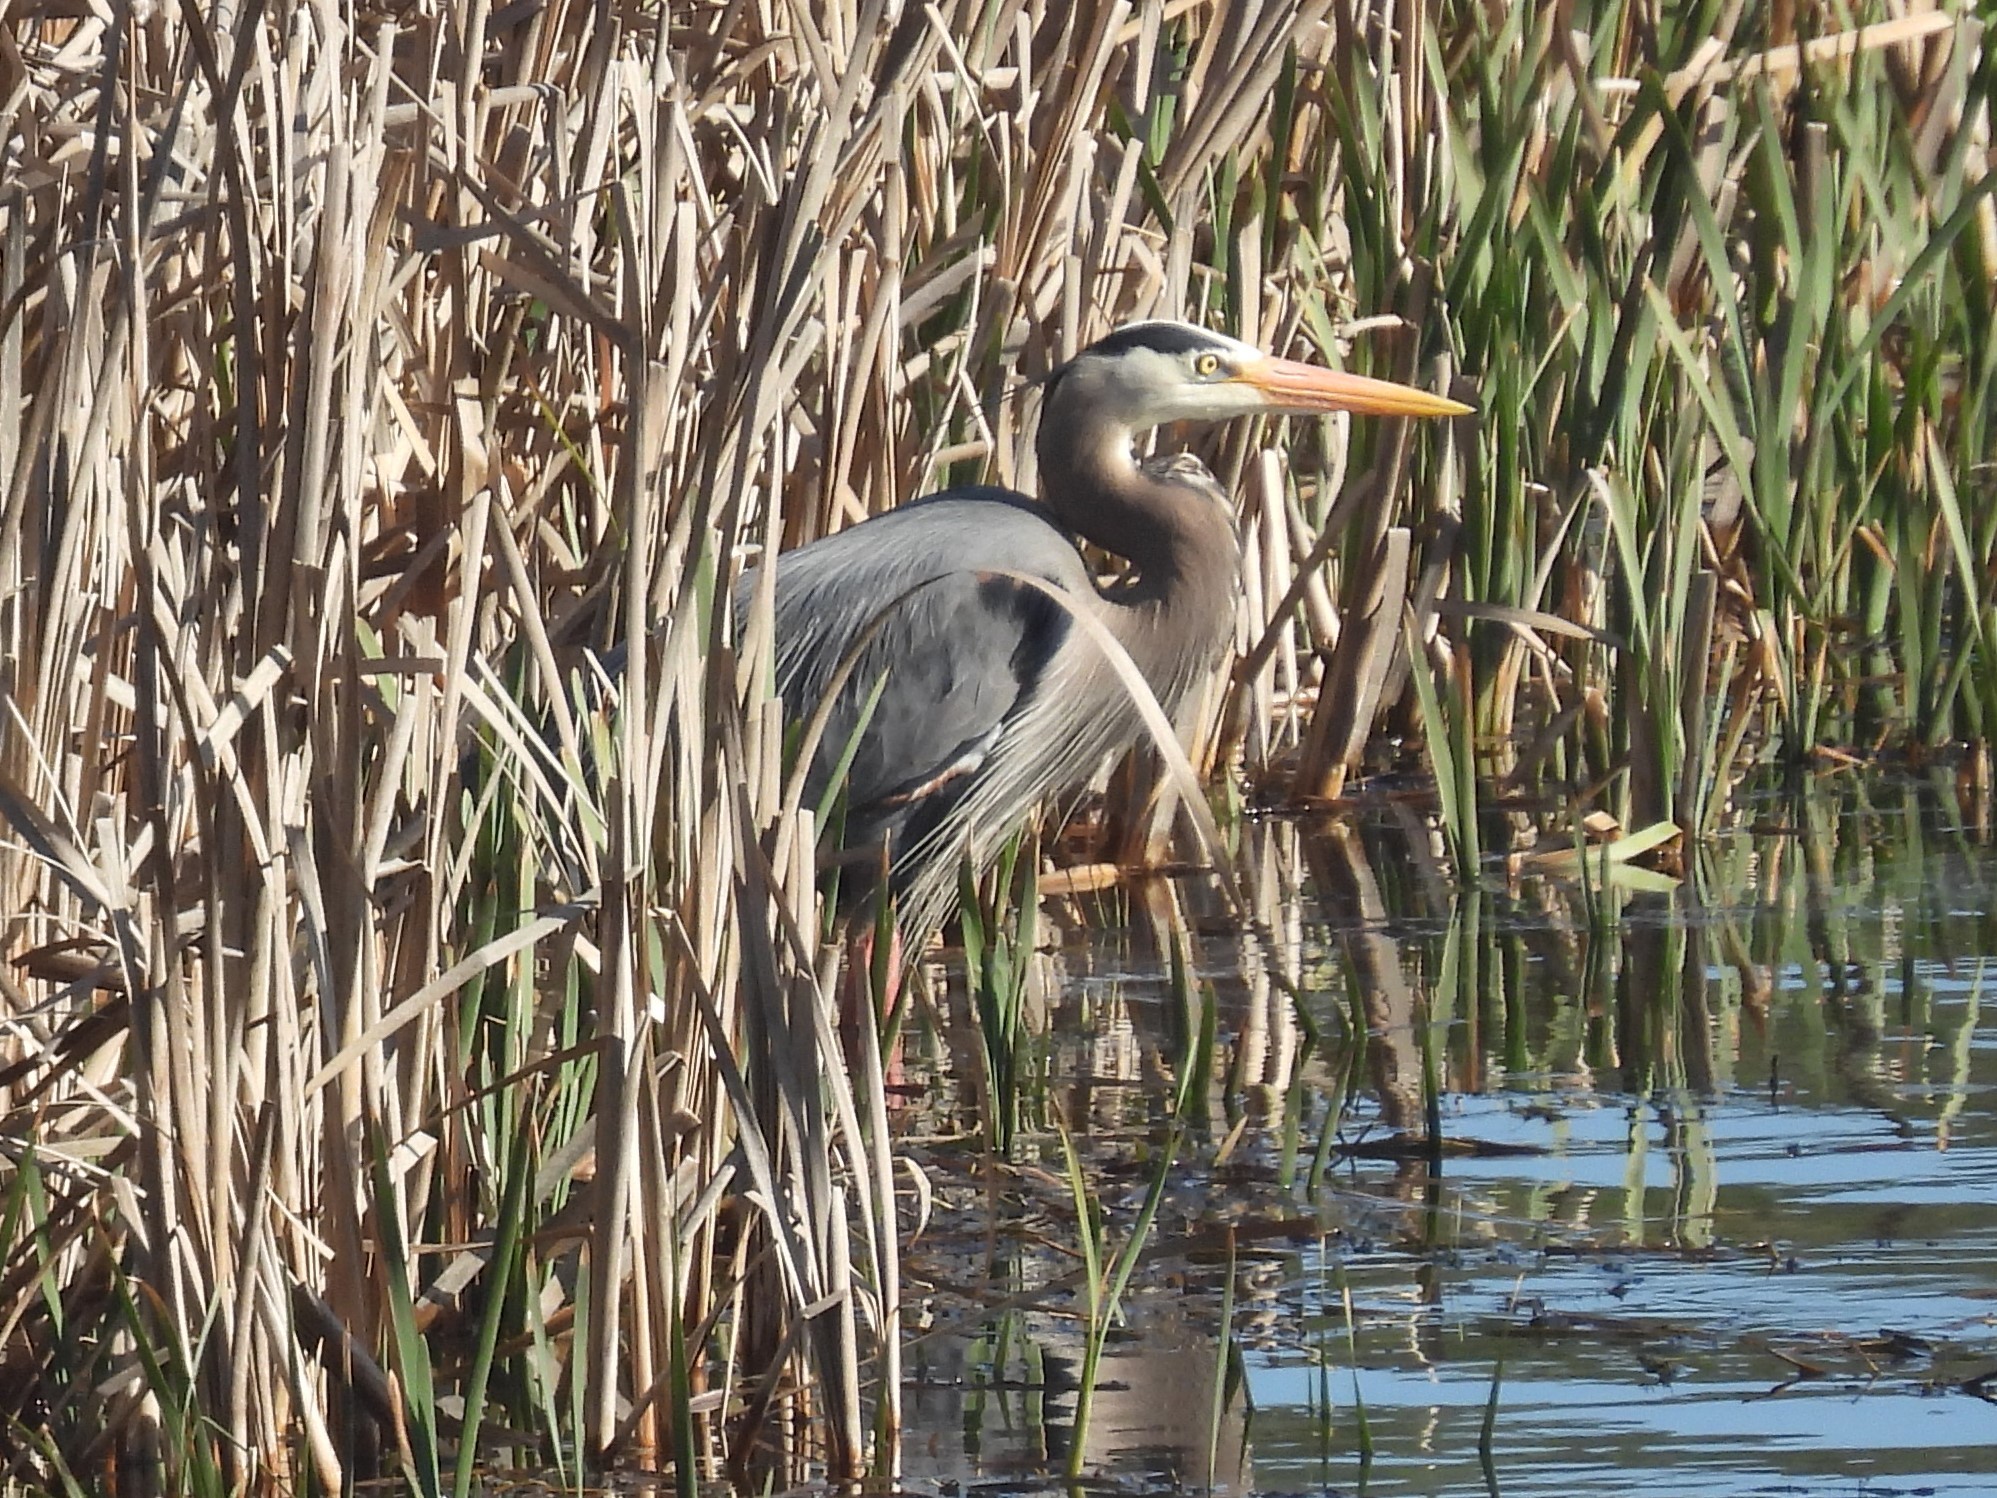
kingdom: Animalia
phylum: Chordata
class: Aves
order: Pelecaniformes
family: Ardeidae
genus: Ardea
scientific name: Ardea herodias
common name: Great blue heron
